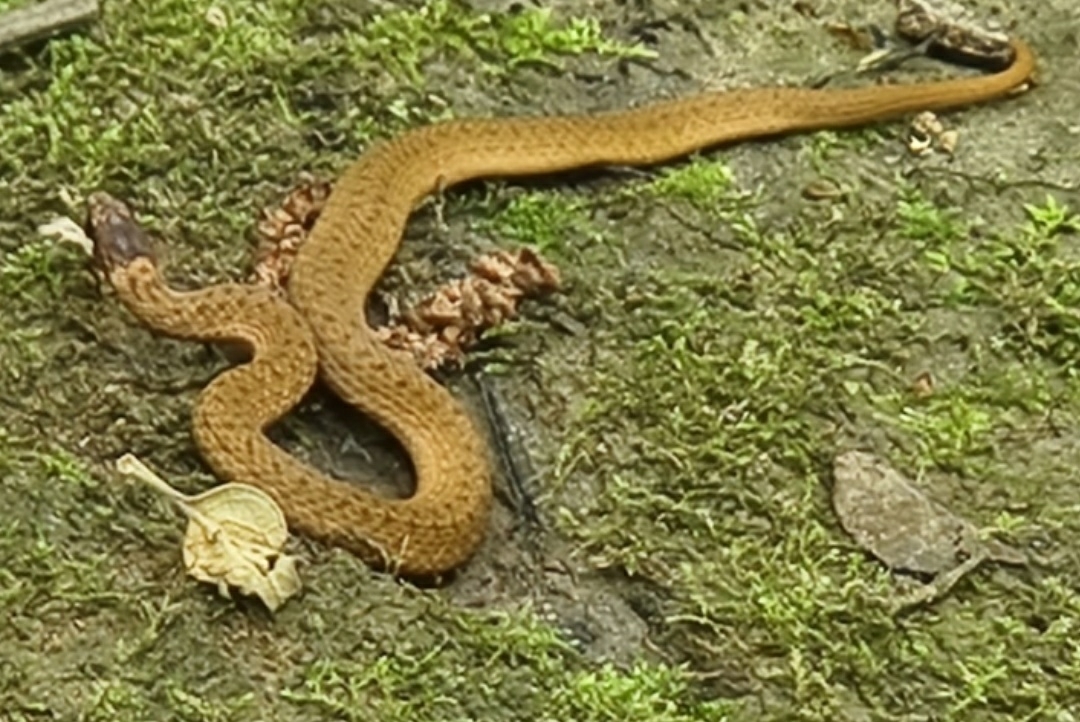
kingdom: Animalia
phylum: Chordata
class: Squamata
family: Colubridae
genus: Storeria
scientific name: Storeria occipitomaculata
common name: Redbelly snake
